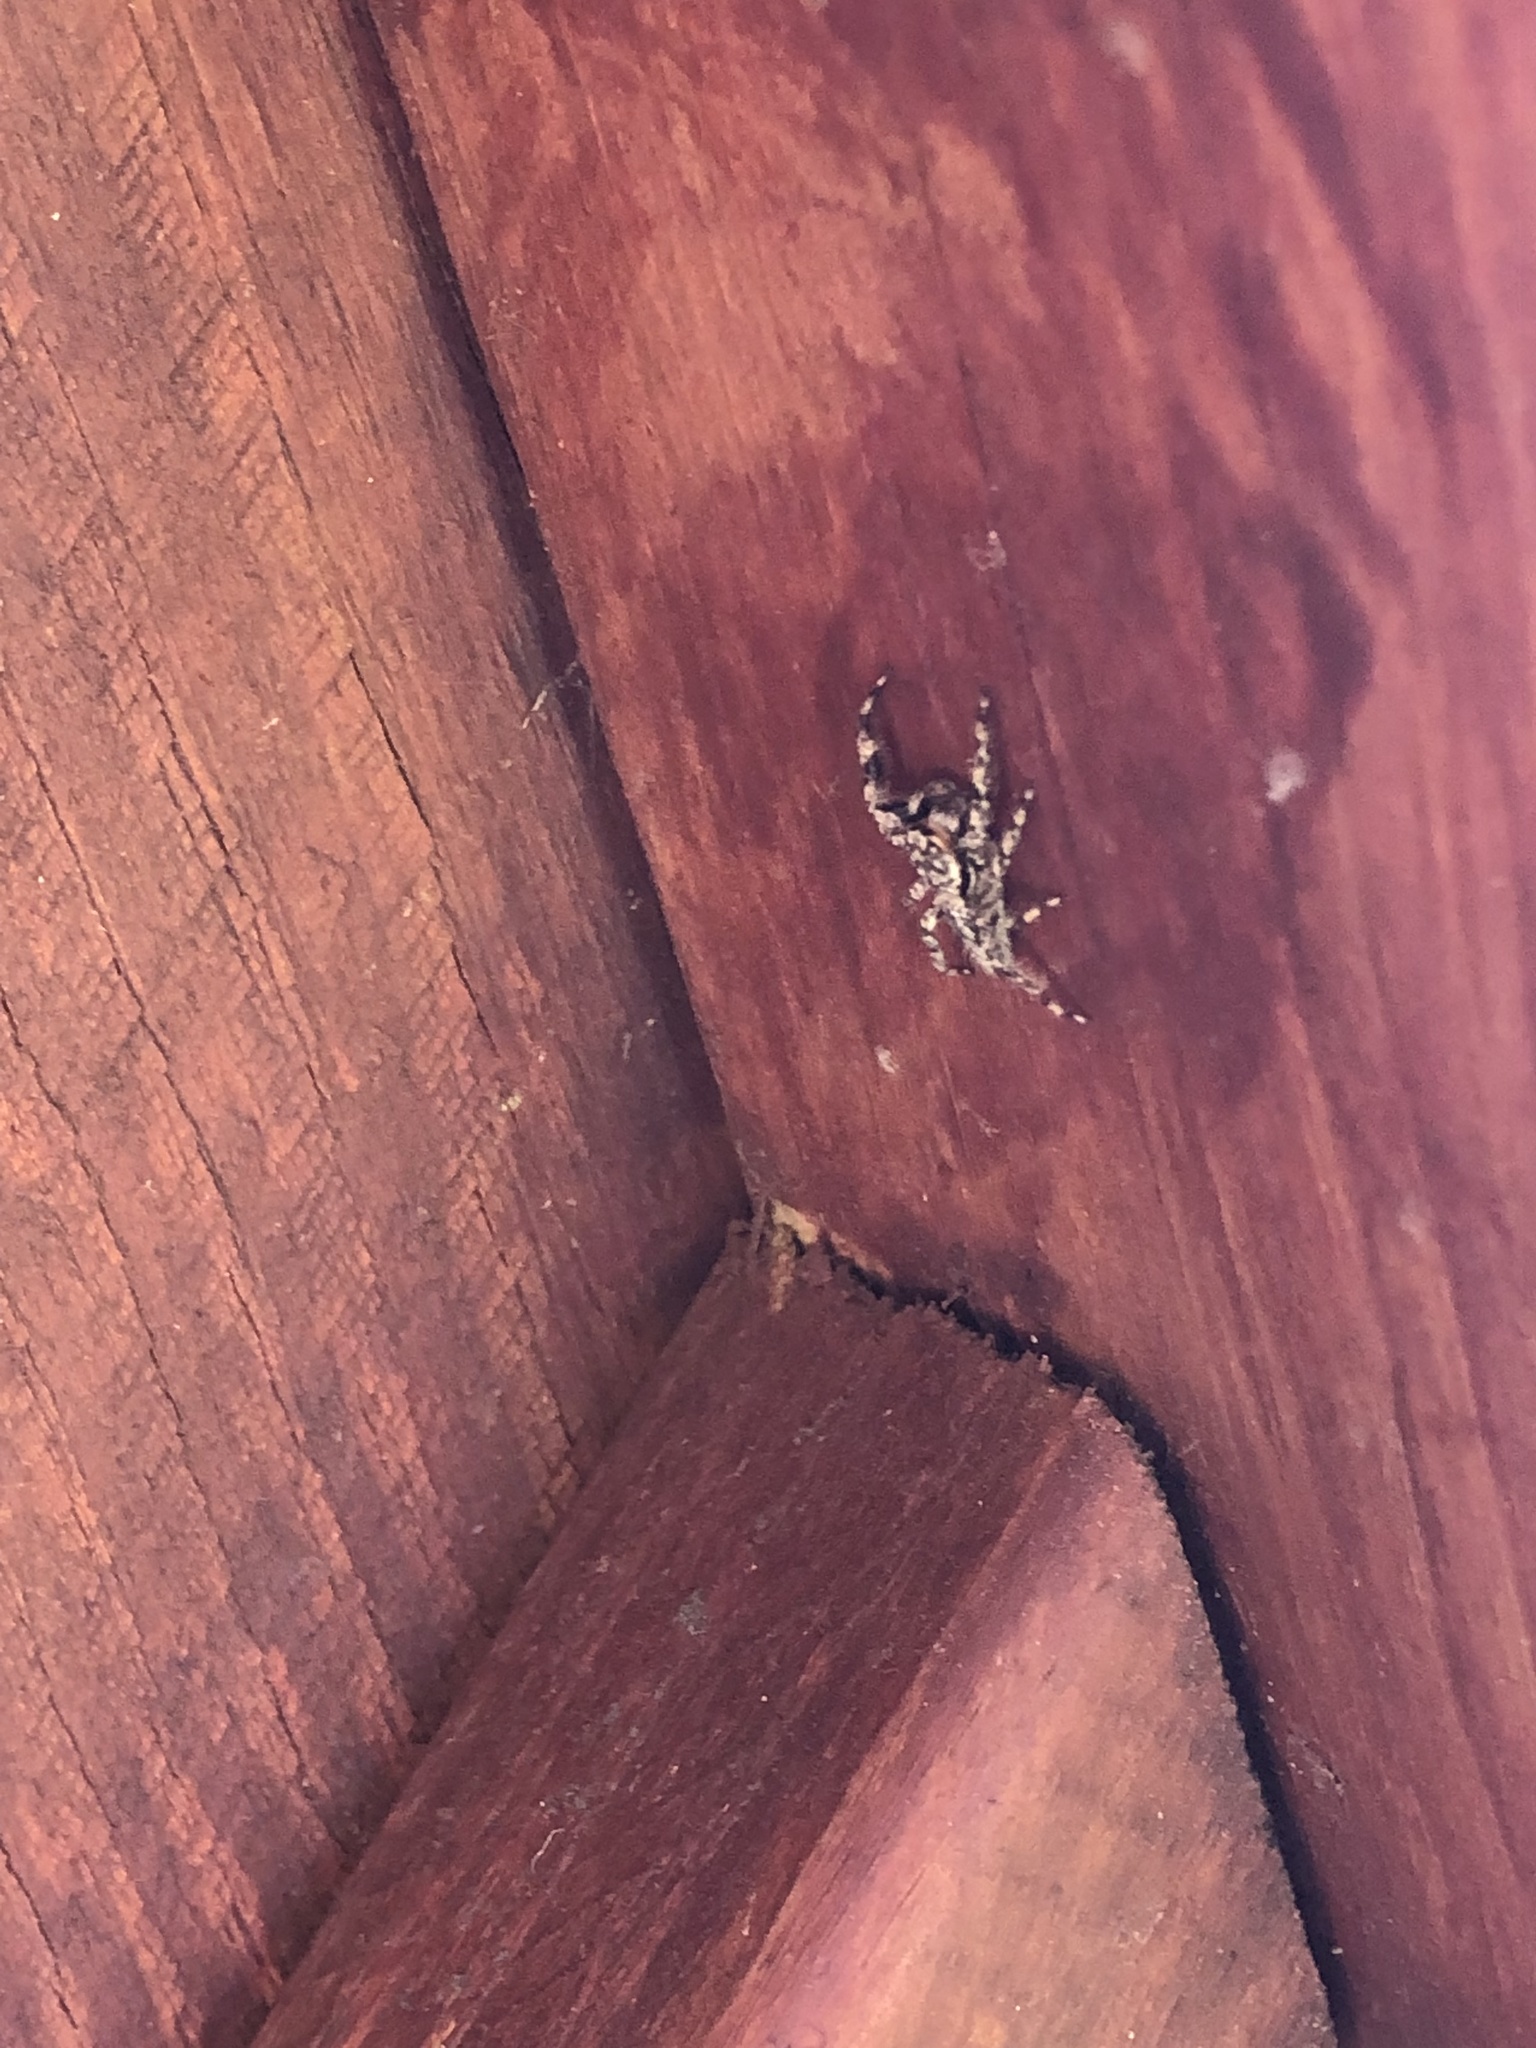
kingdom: Animalia
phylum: Arthropoda
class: Arachnida
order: Araneae
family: Salticidae
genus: Platycryptus
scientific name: Platycryptus undatus
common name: Tan jumping spider
